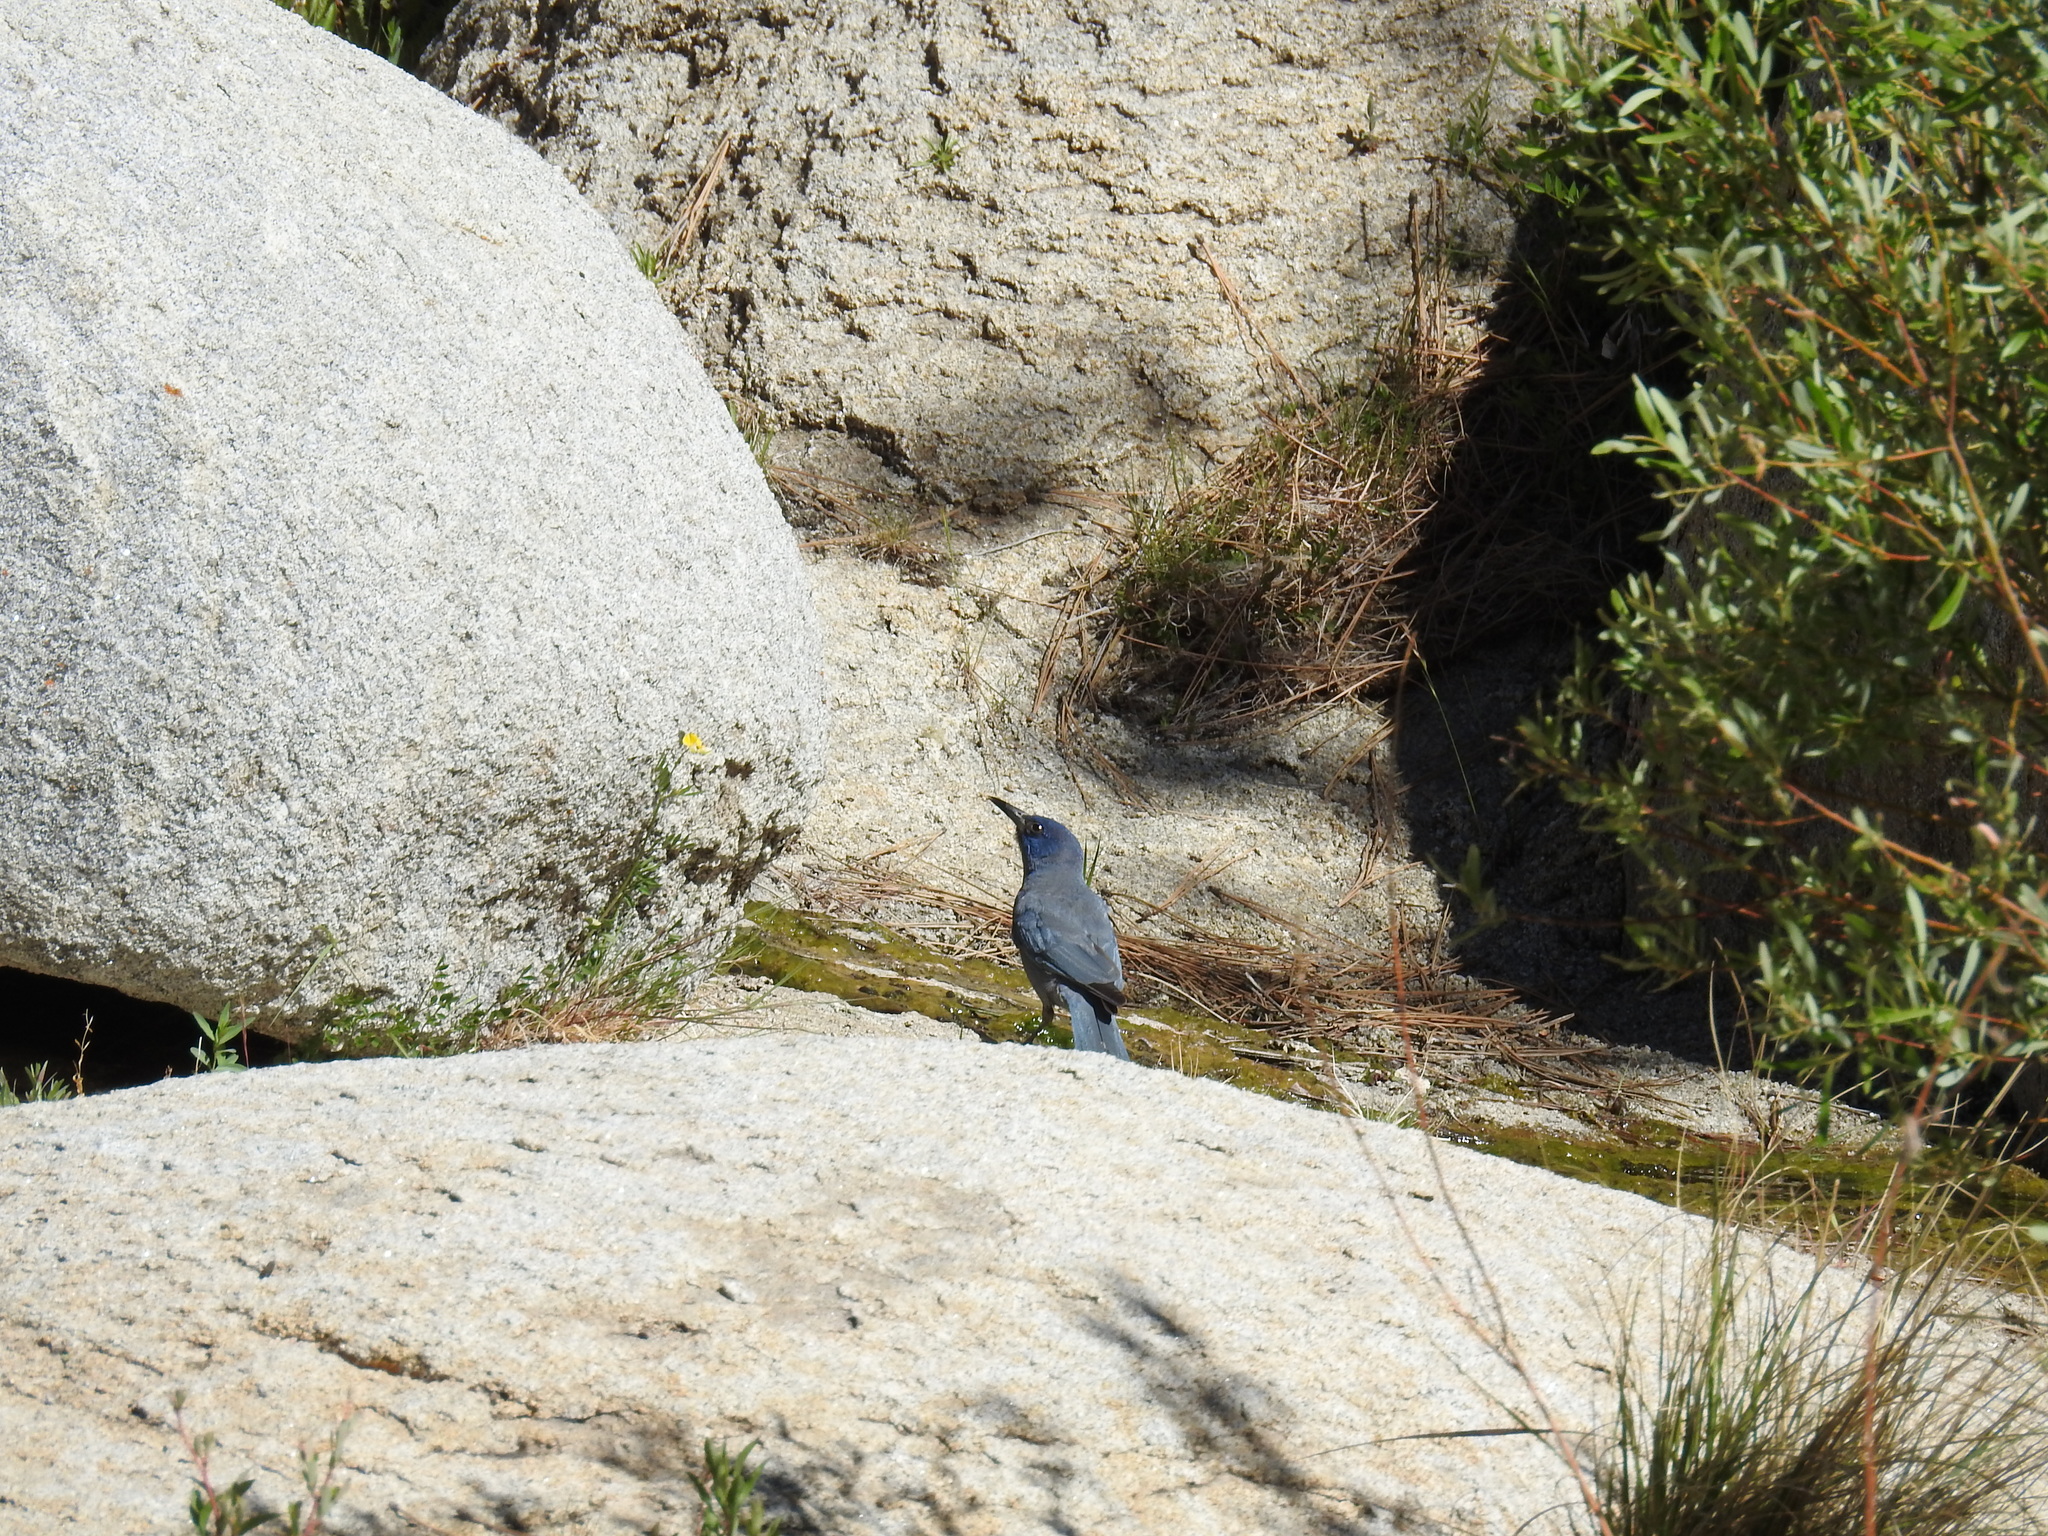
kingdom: Animalia
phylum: Chordata
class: Aves
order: Passeriformes
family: Corvidae
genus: Gymnorhinus
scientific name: Gymnorhinus cyanocephalus
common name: Pinyon jay
